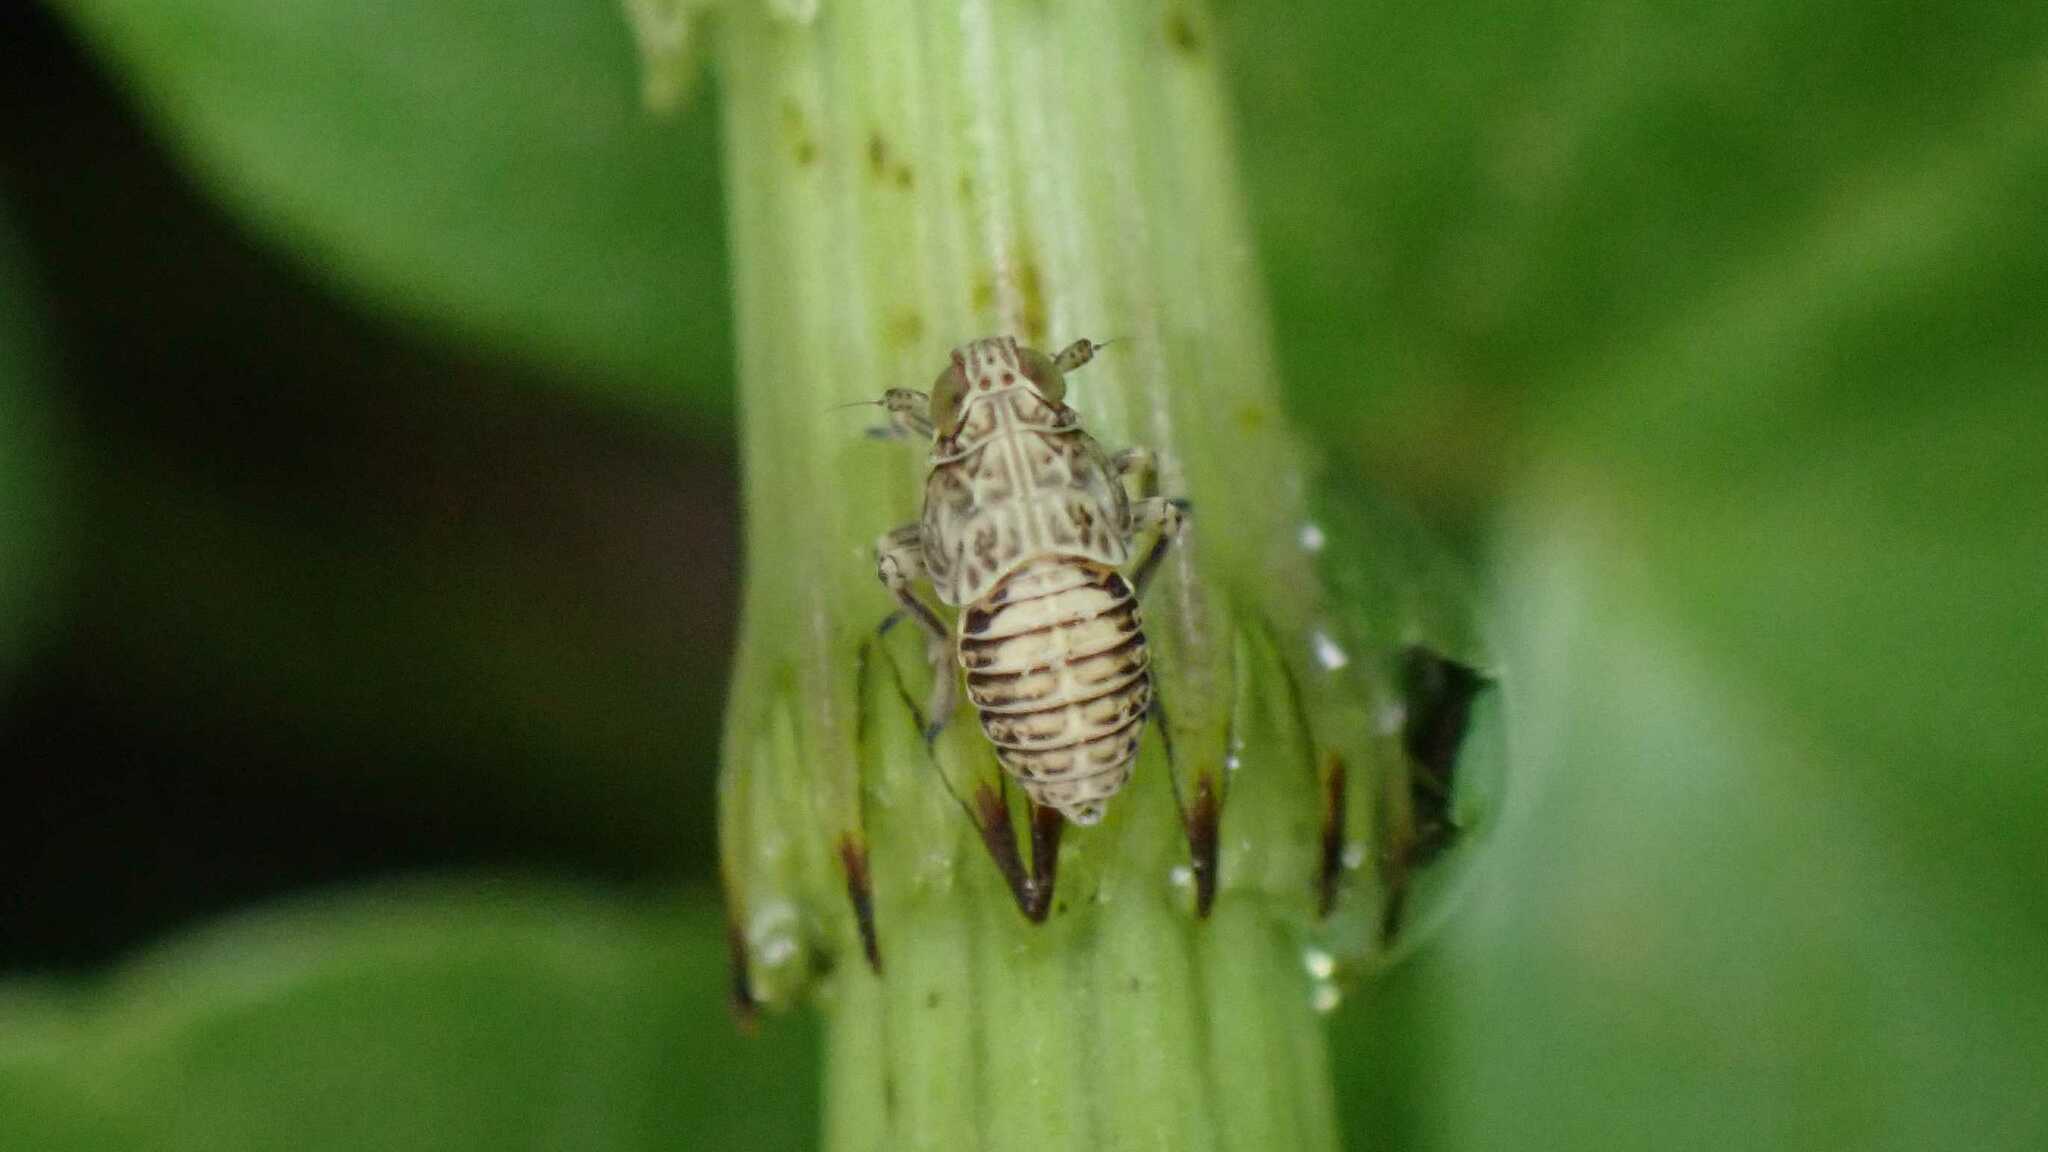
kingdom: Animalia
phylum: Arthropoda
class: Insecta
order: Hemiptera
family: Delphacidae
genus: Javesella
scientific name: Javesella stali
